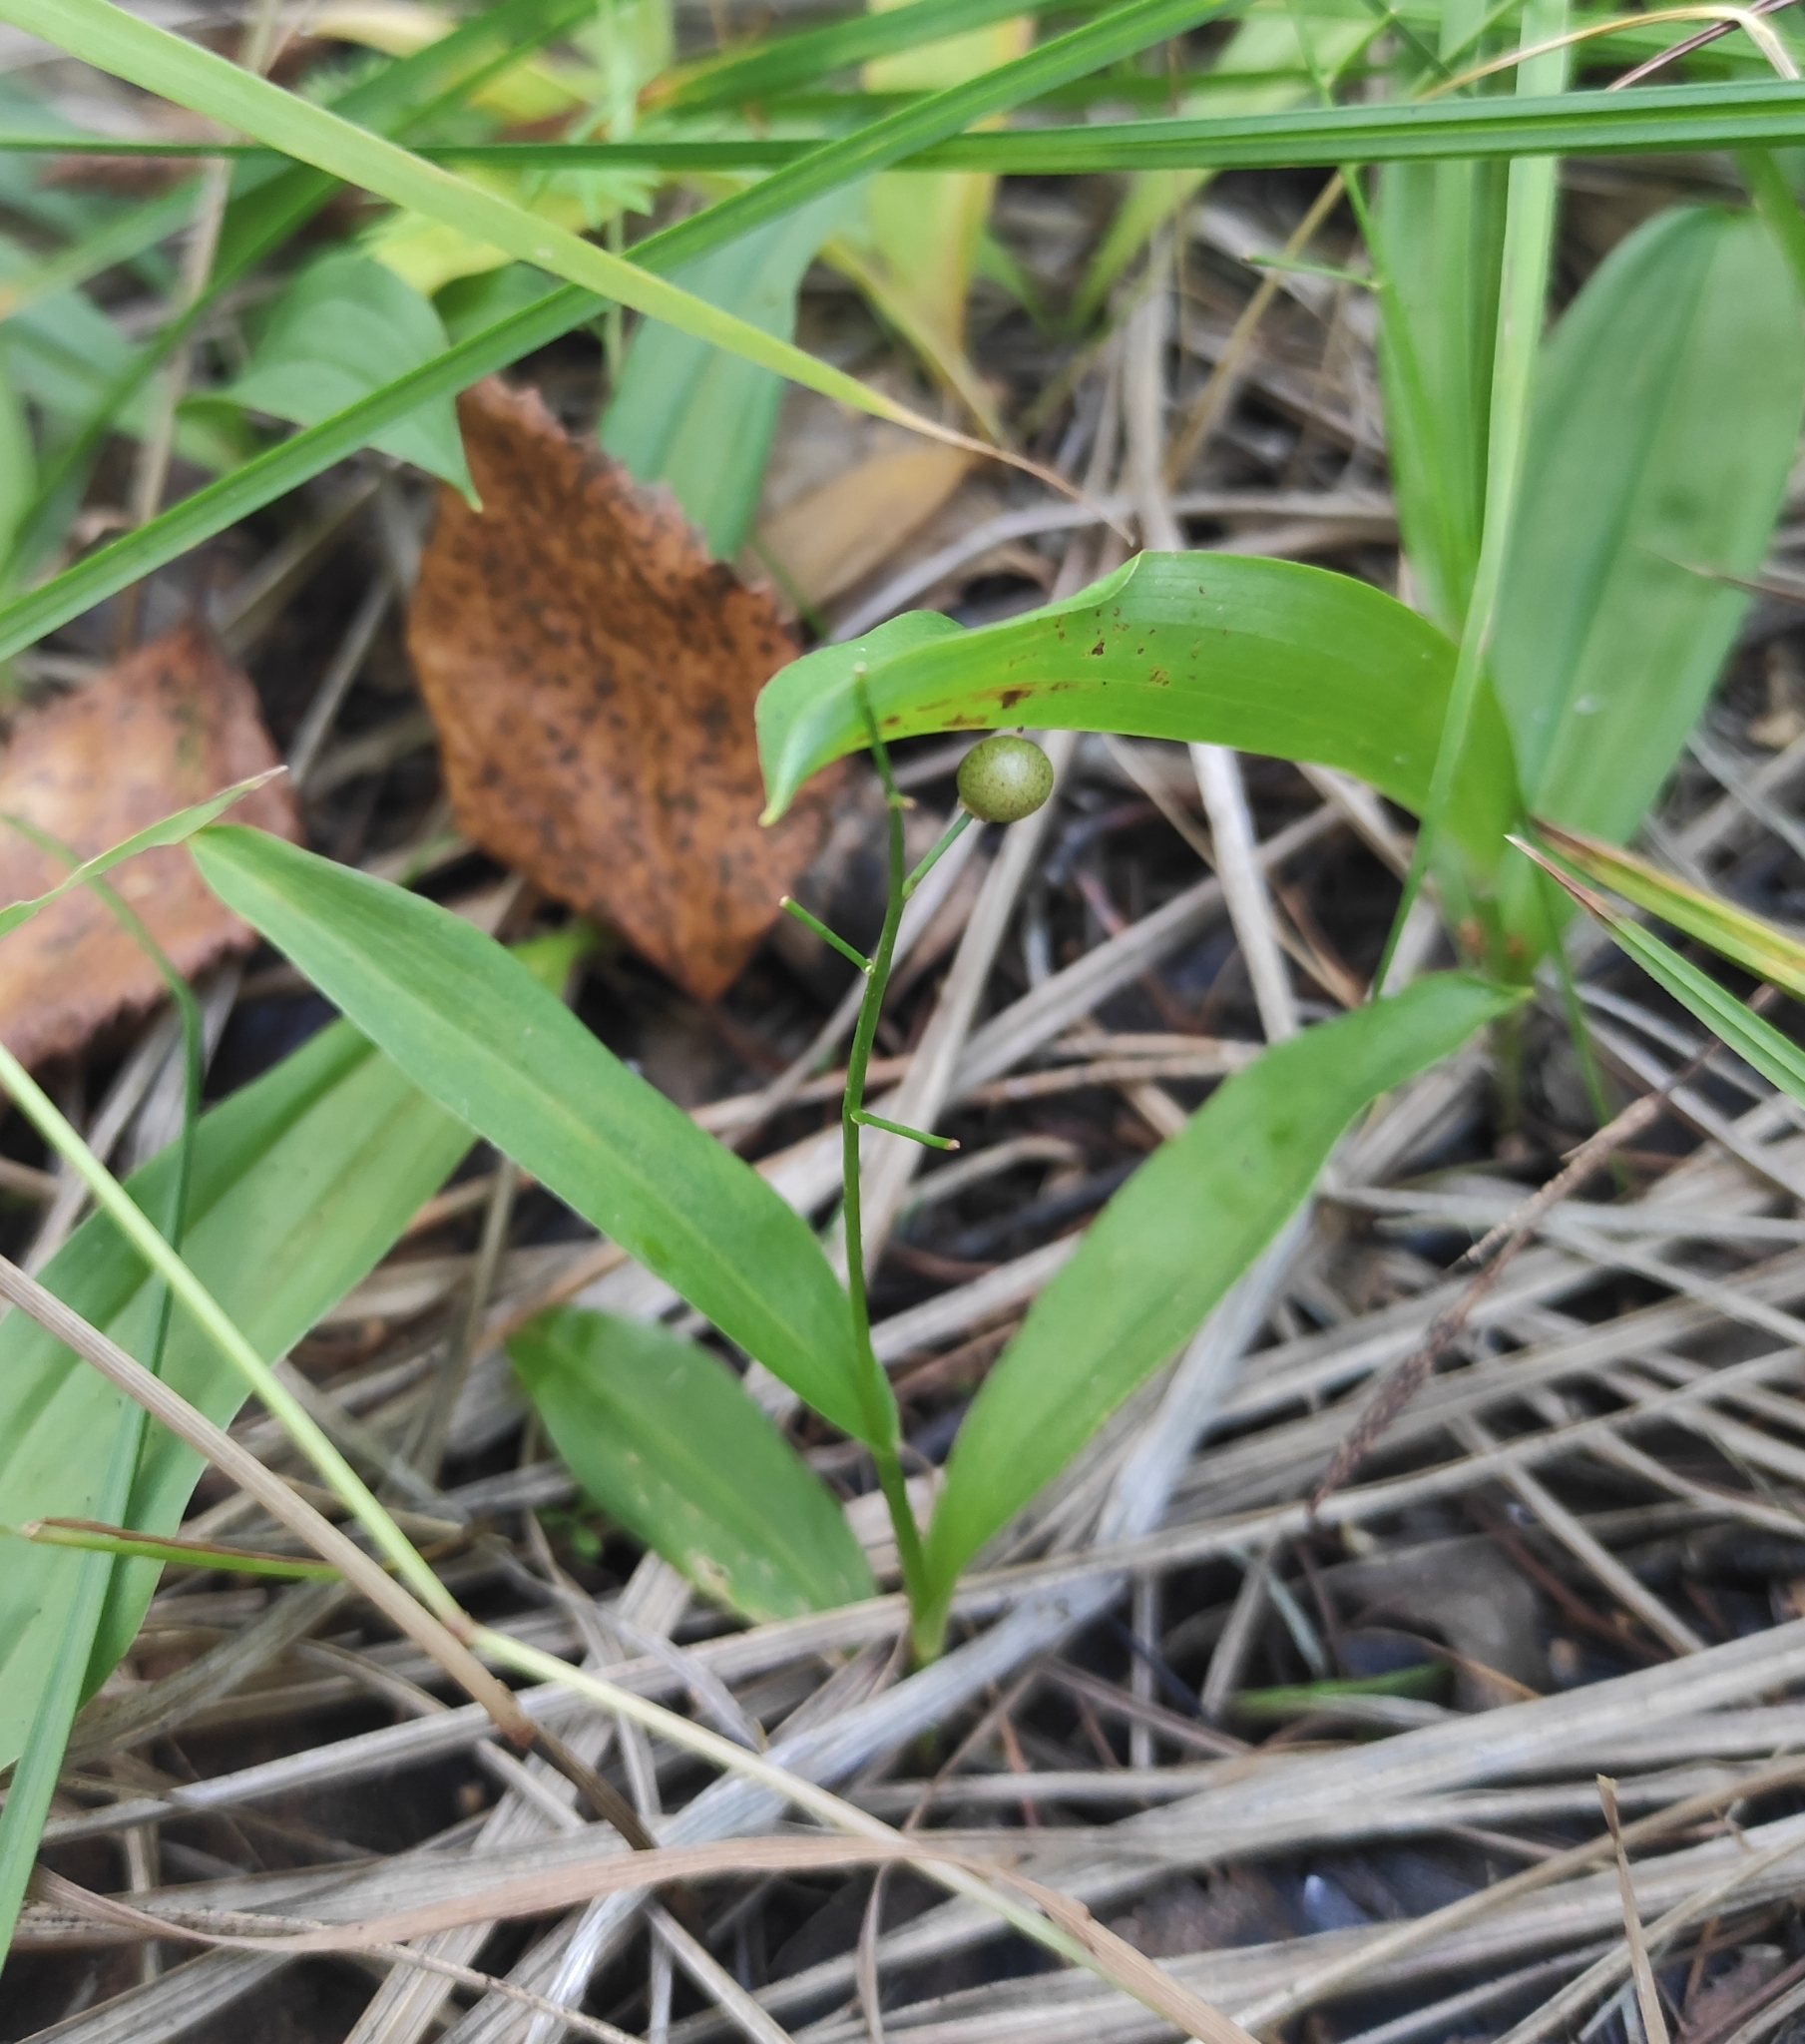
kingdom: Plantae
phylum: Tracheophyta
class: Liliopsida
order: Asparagales
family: Asparagaceae
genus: Maianthemum
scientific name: Maianthemum trifolium
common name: Swamp false solomon's seal
